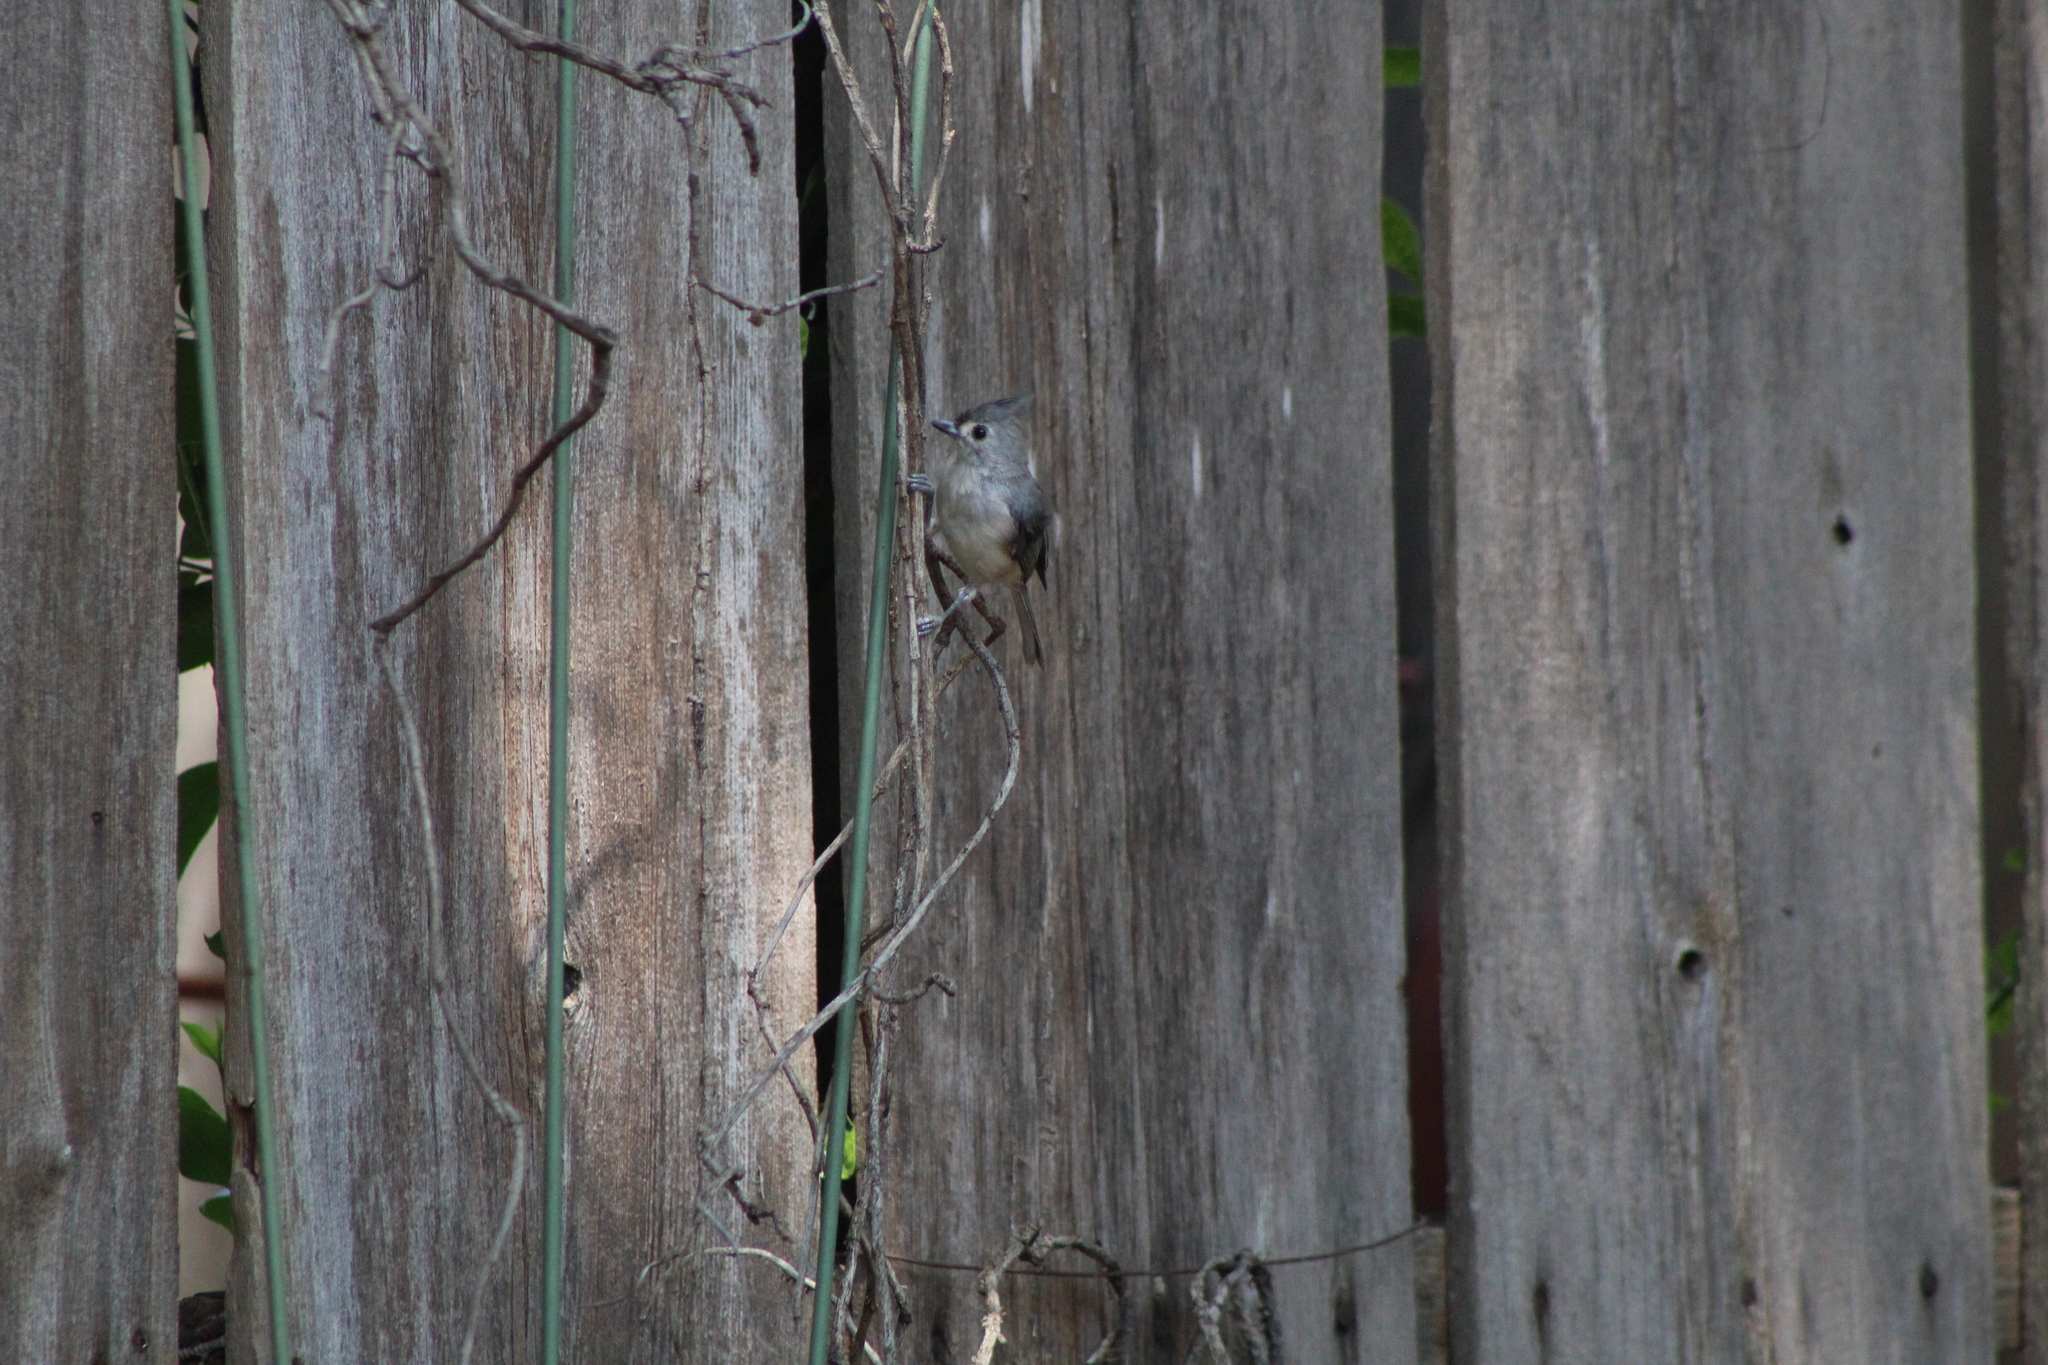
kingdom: Animalia
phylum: Chordata
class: Aves
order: Passeriformes
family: Paridae
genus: Baeolophus
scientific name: Baeolophus bicolor
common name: Tufted titmouse
